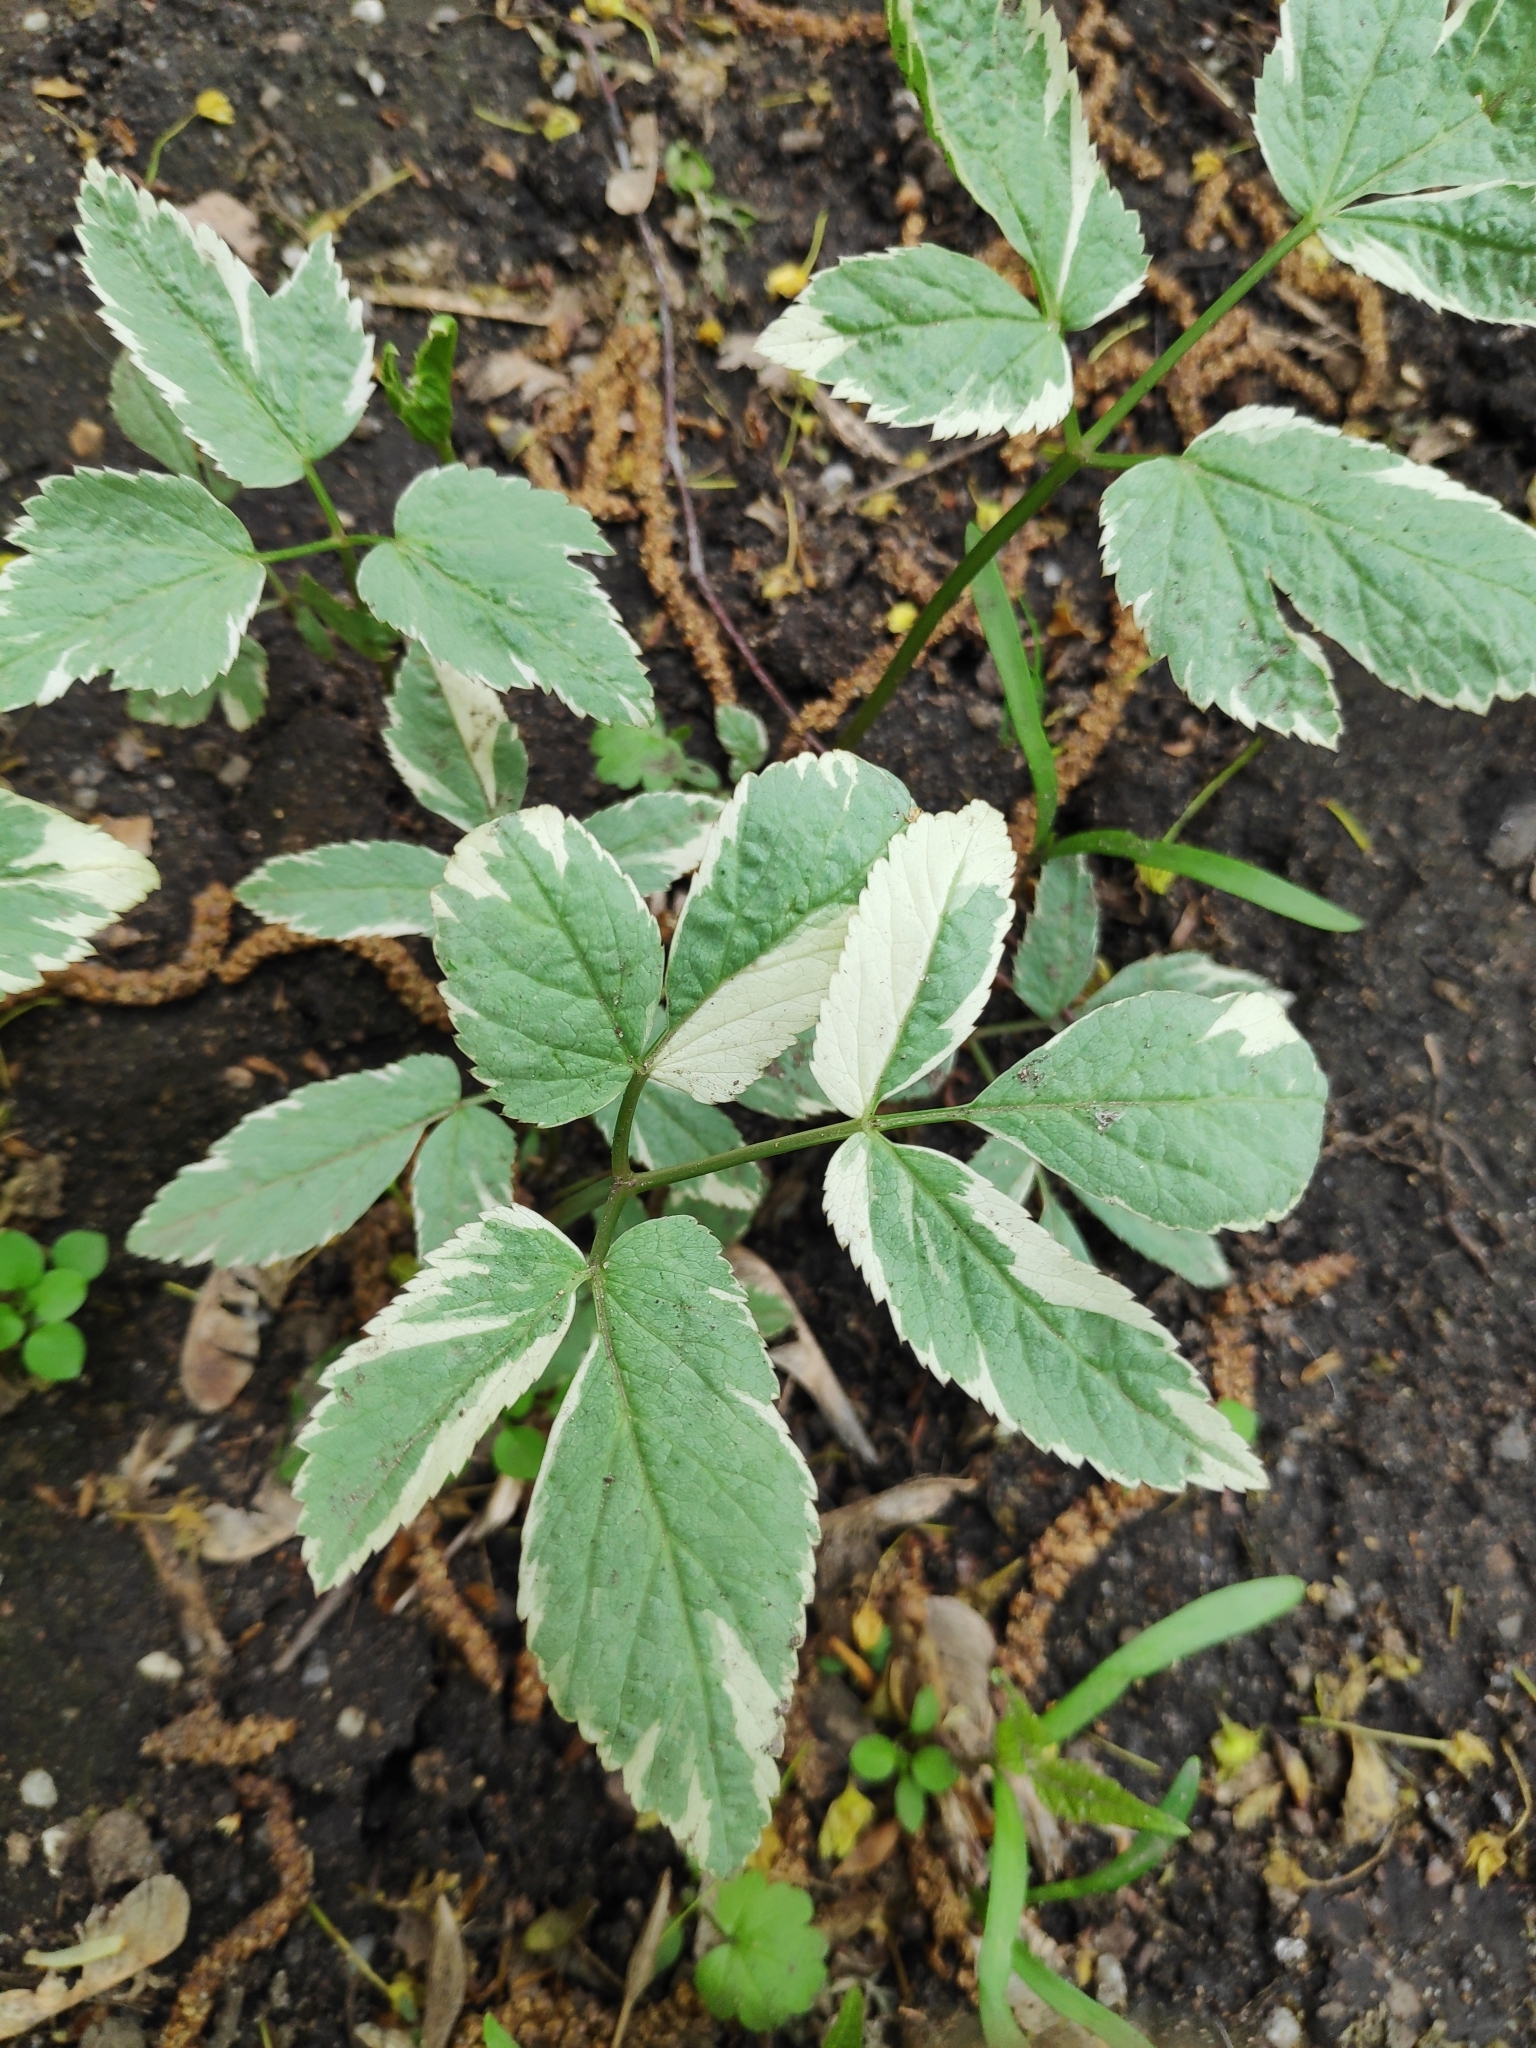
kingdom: Plantae
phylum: Tracheophyta
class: Magnoliopsida
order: Apiales
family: Apiaceae
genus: Aegopodium
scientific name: Aegopodium podagraria
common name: Ground-elder
